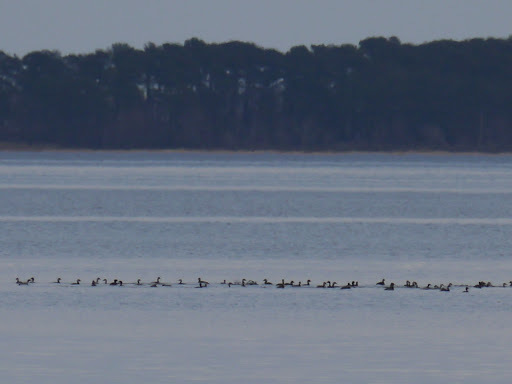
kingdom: Animalia
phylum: Chordata
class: Aves
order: Podicipediformes
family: Podicipedidae
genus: Podiceps
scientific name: Podiceps auritus
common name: Horned grebe
